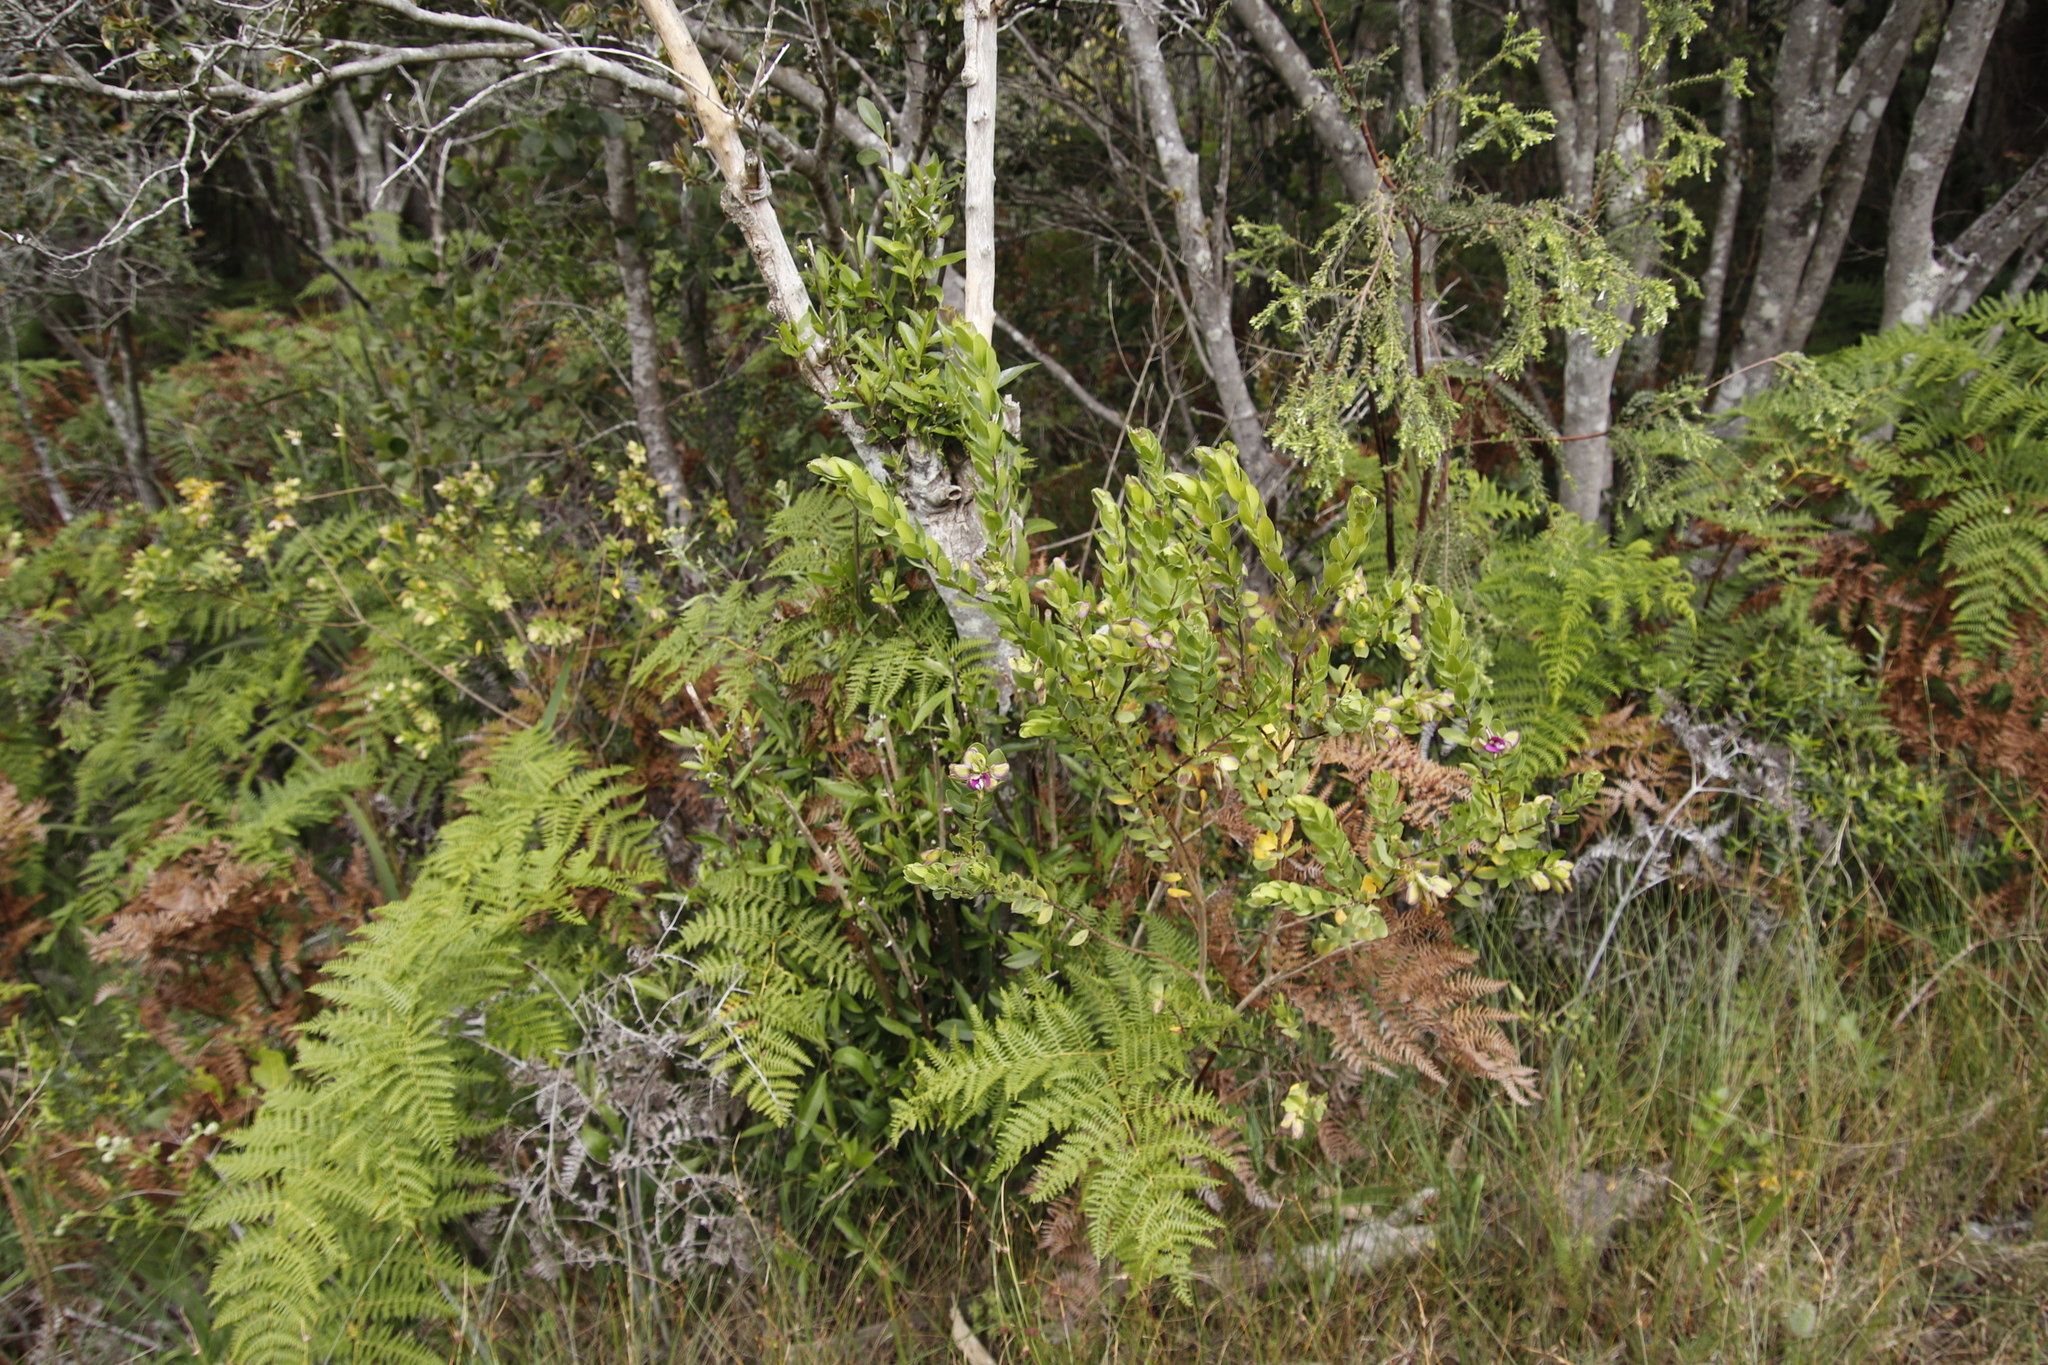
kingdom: Plantae
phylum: Tracheophyta
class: Magnoliopsida
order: Fabales
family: Polygalaceae
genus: Polygala
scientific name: Polygala myrtifolia
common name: Myrtle-leaf milkwort
